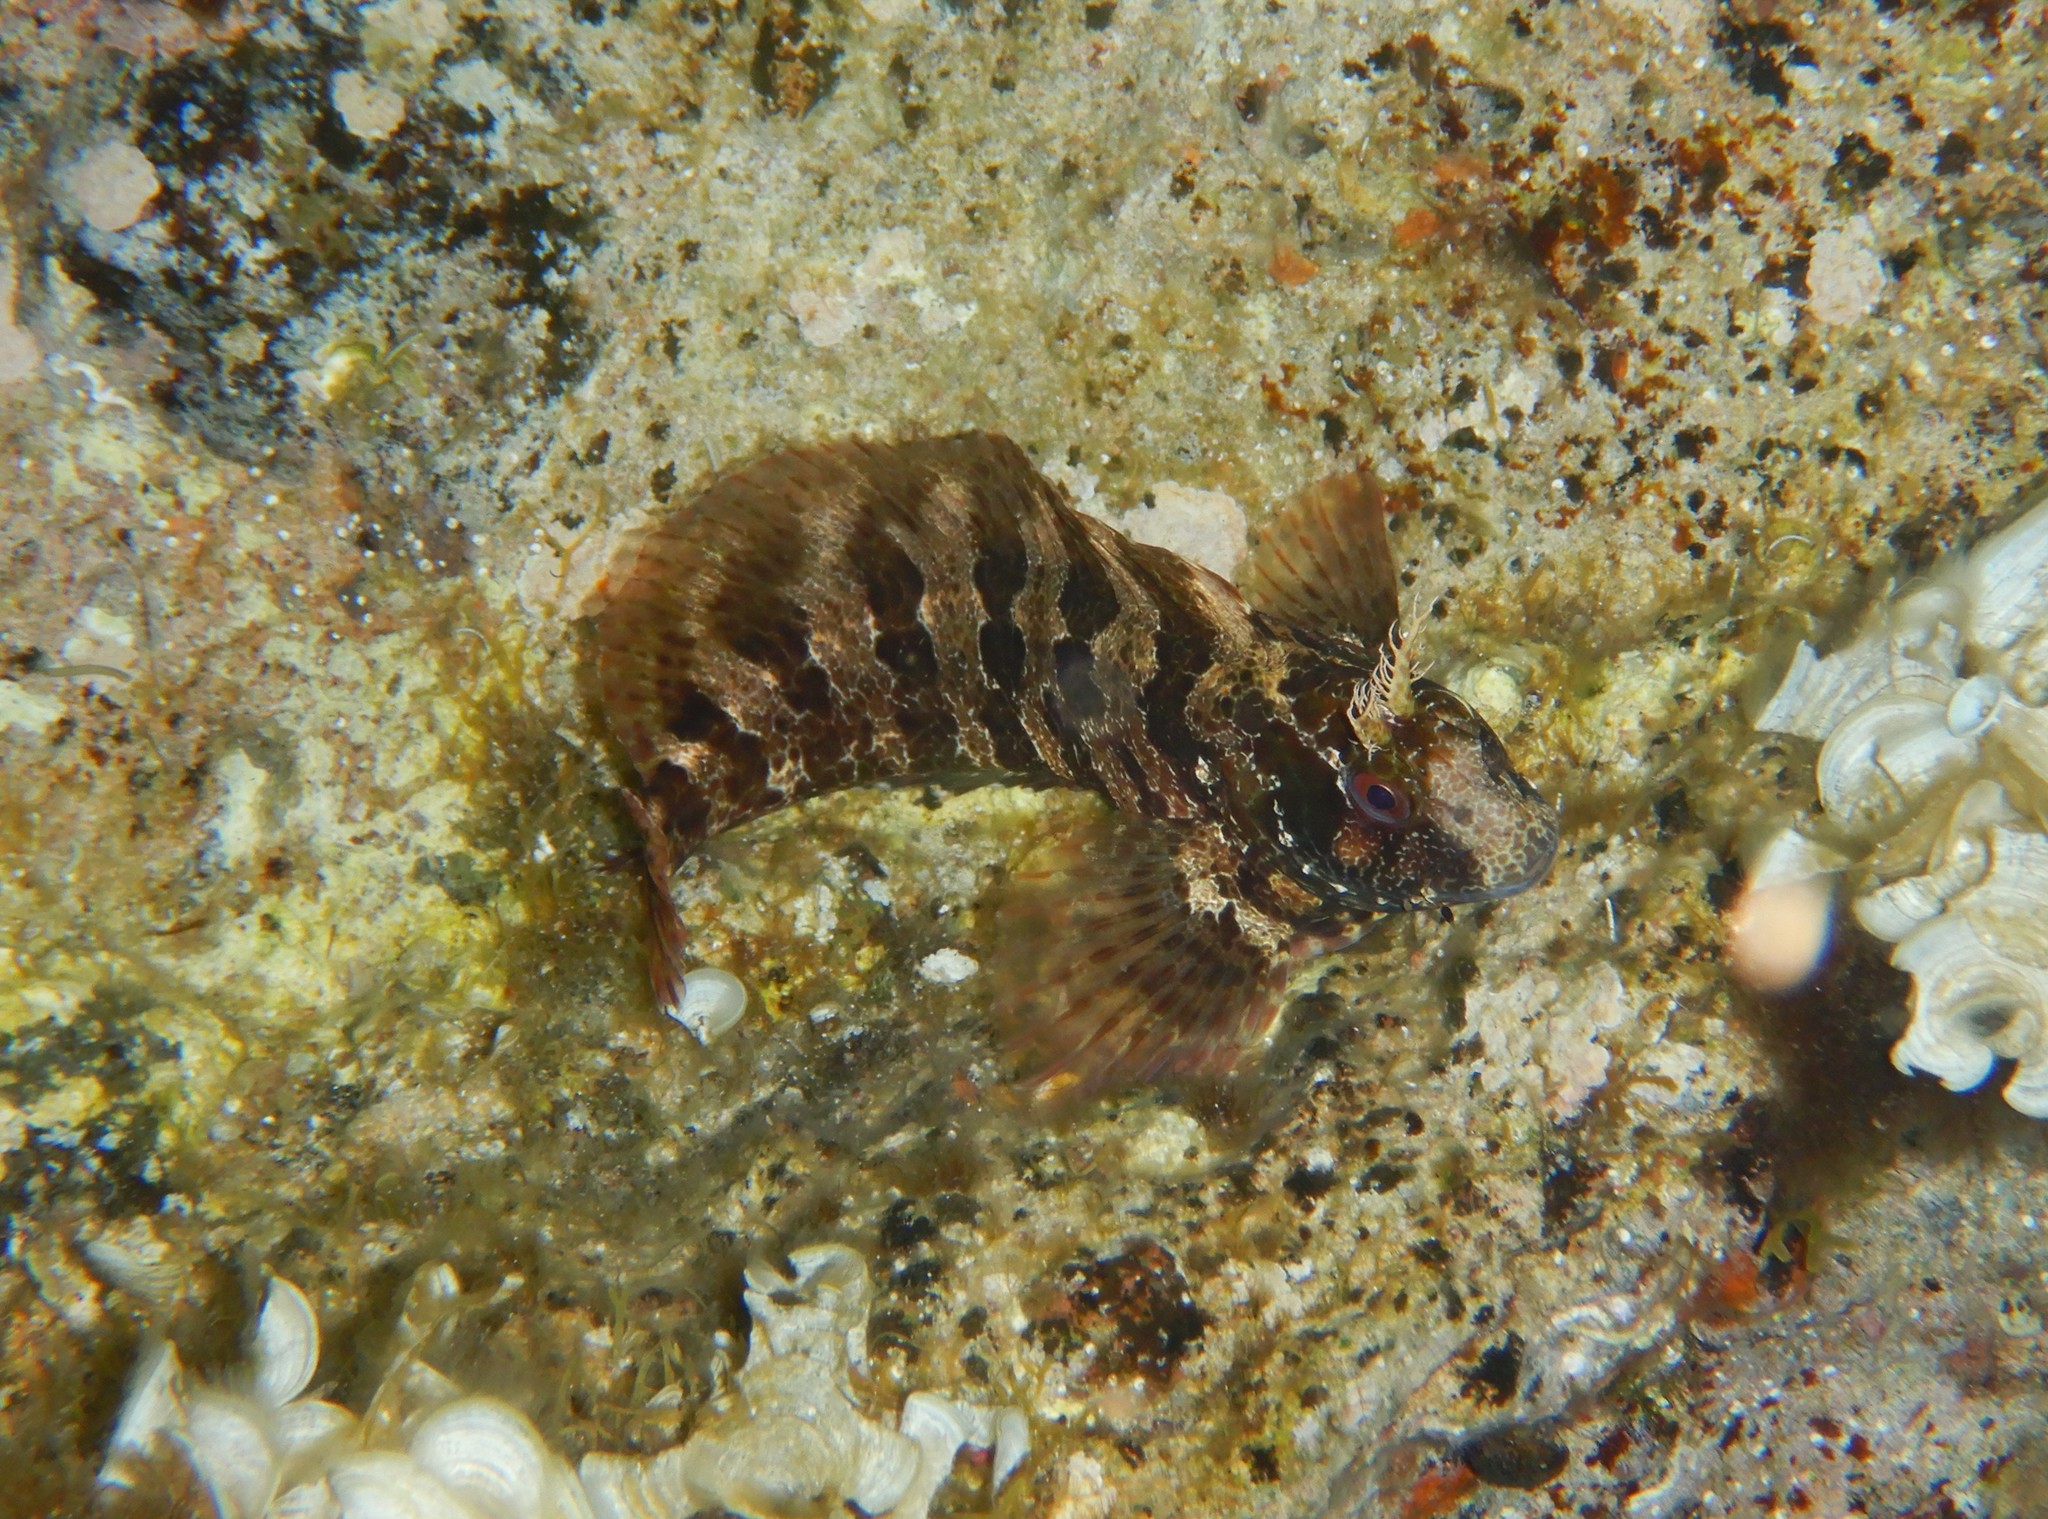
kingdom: Animalia
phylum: Chordata
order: Perciformes
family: Blenniidae
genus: Parablennius
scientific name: Parablennius gattorugine
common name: Tompot blenny
